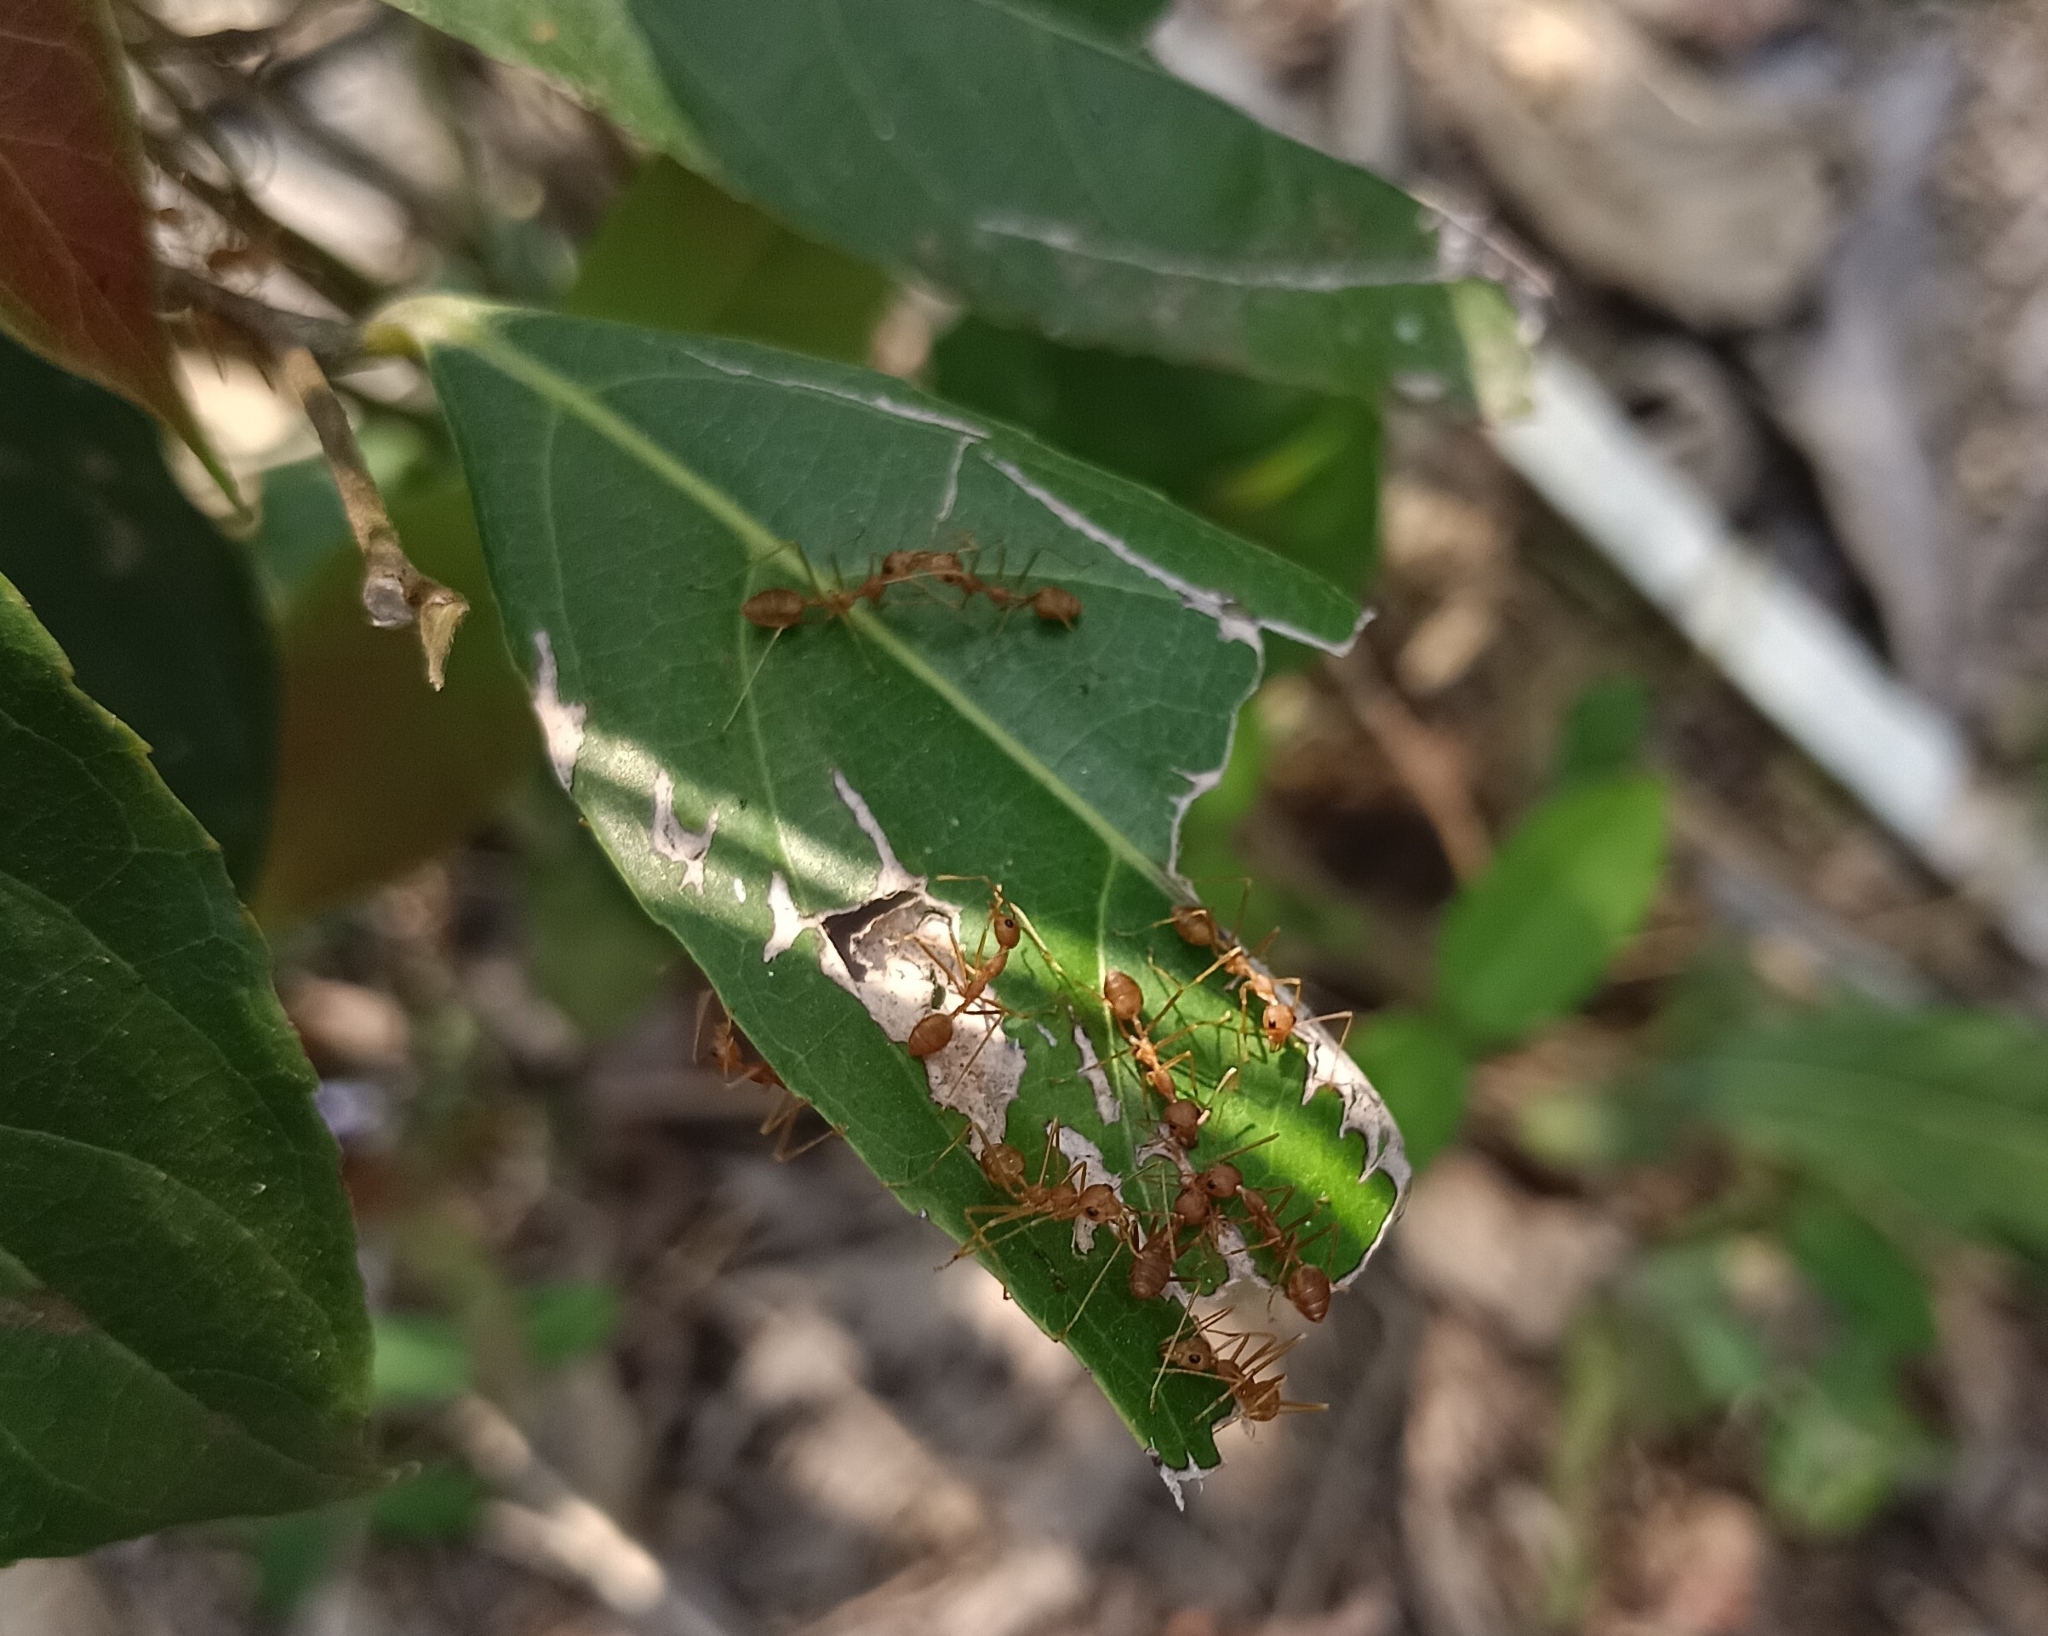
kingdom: Animalia
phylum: Arthropoda
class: Insecta
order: Hymenoptera
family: Formicidae
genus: Oecophylla
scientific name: Oecophylla smaragdina
